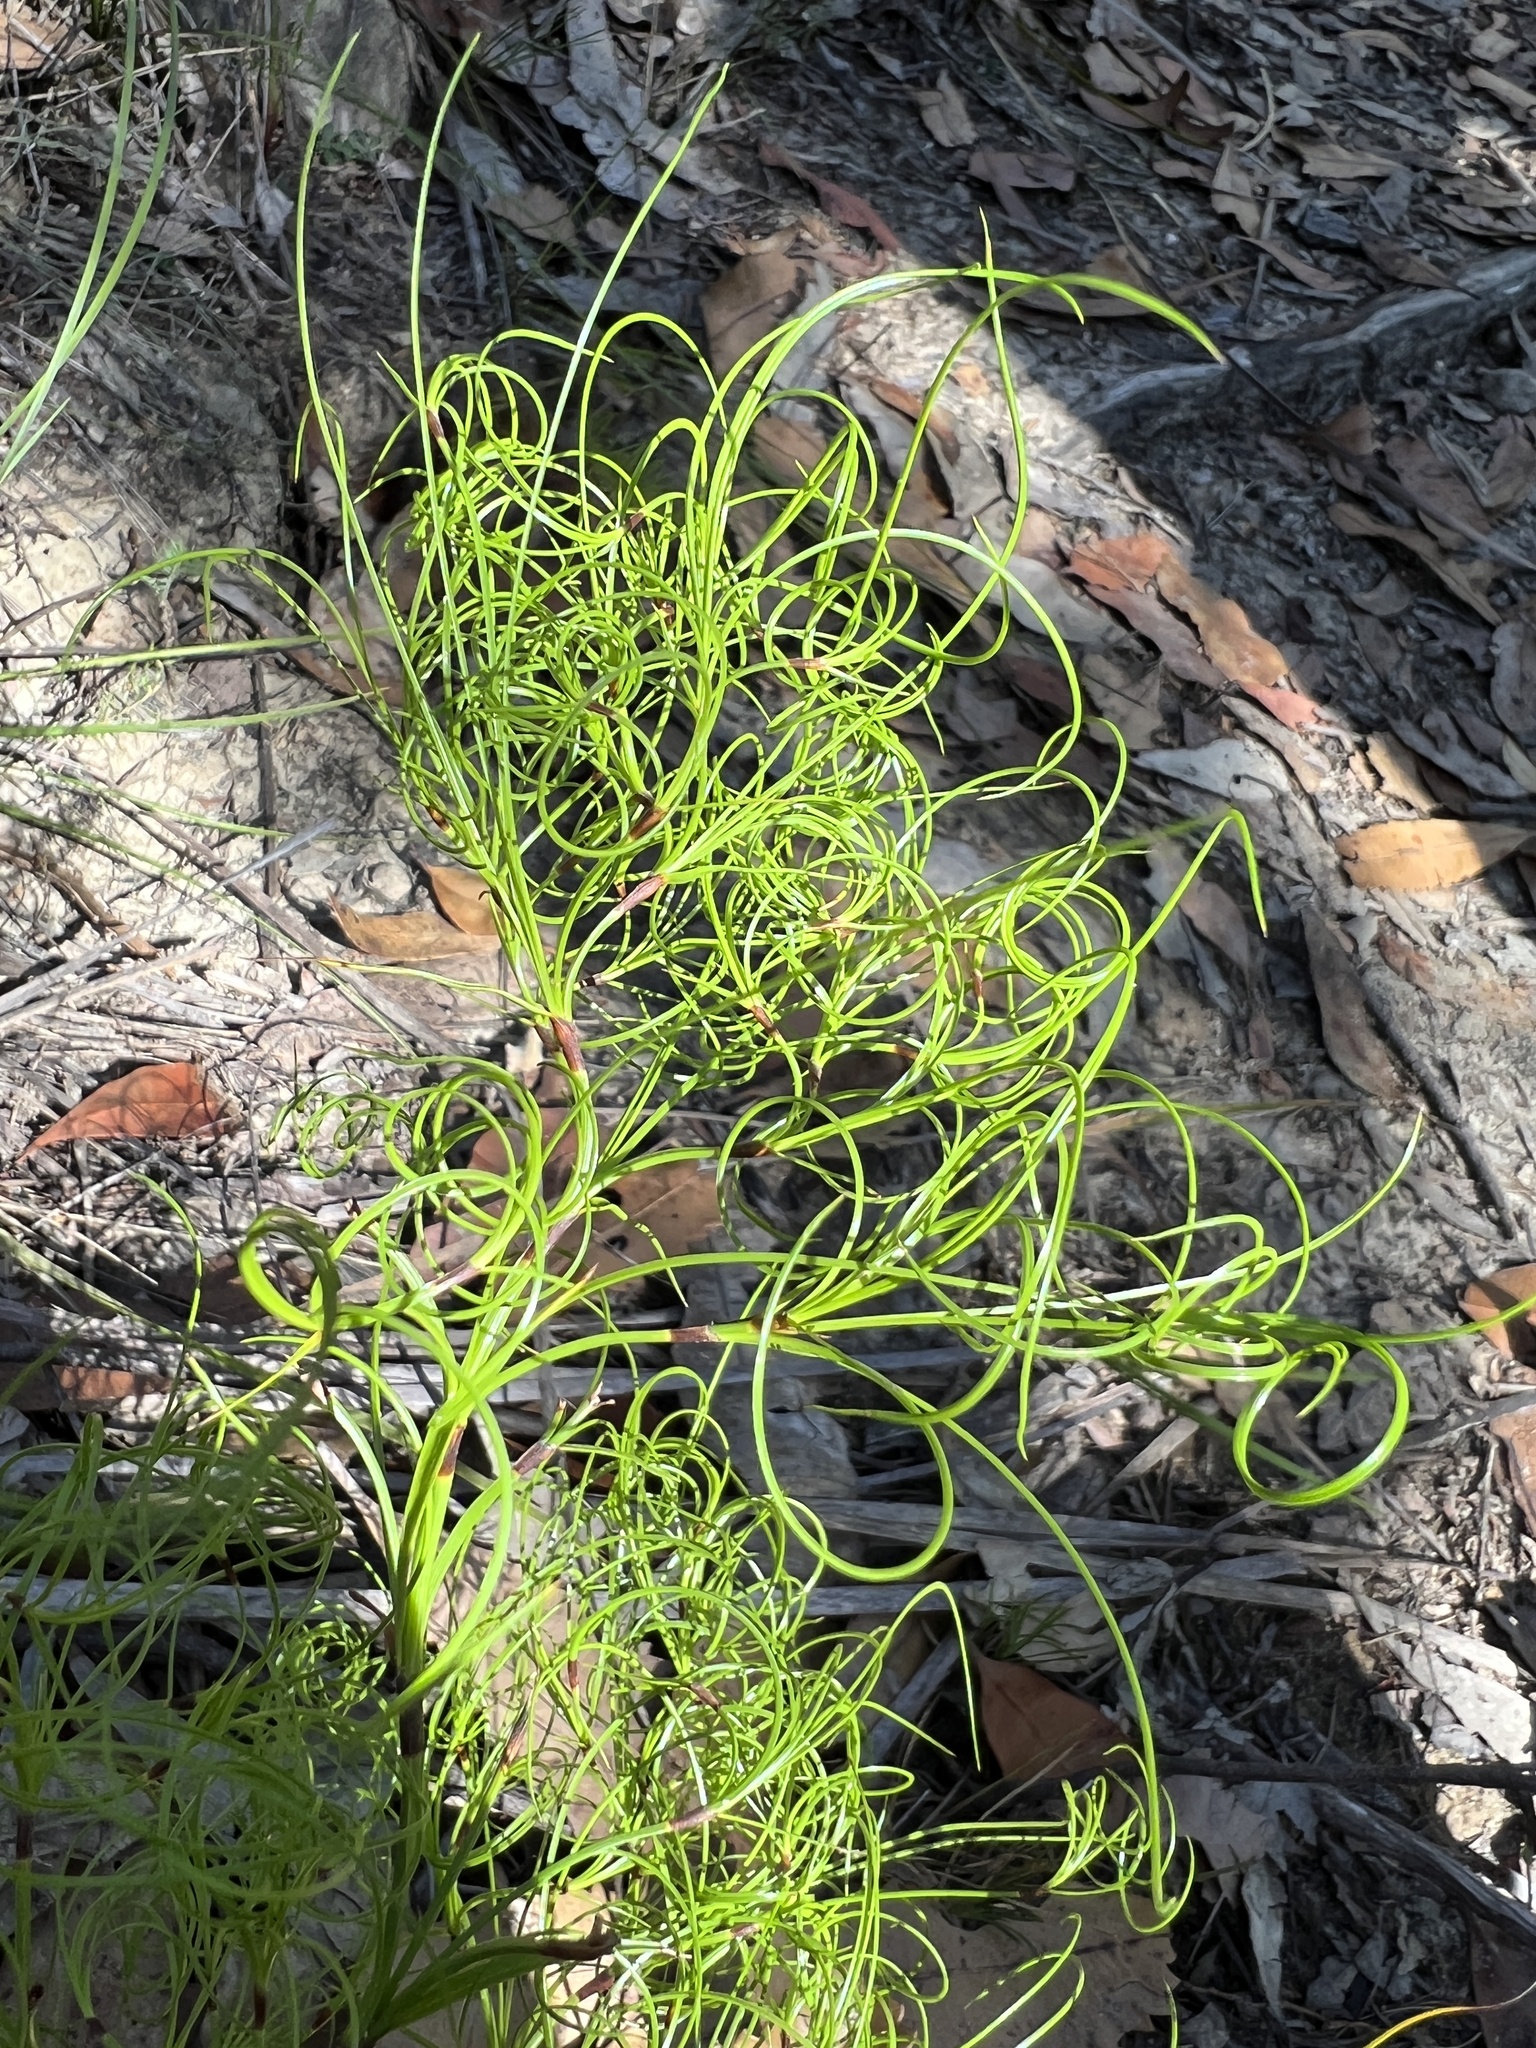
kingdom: Plantae
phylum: Tracheophyta
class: Liliopsida
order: Poales
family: Cyperaceae
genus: Caustis
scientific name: Caustis flexuosa
